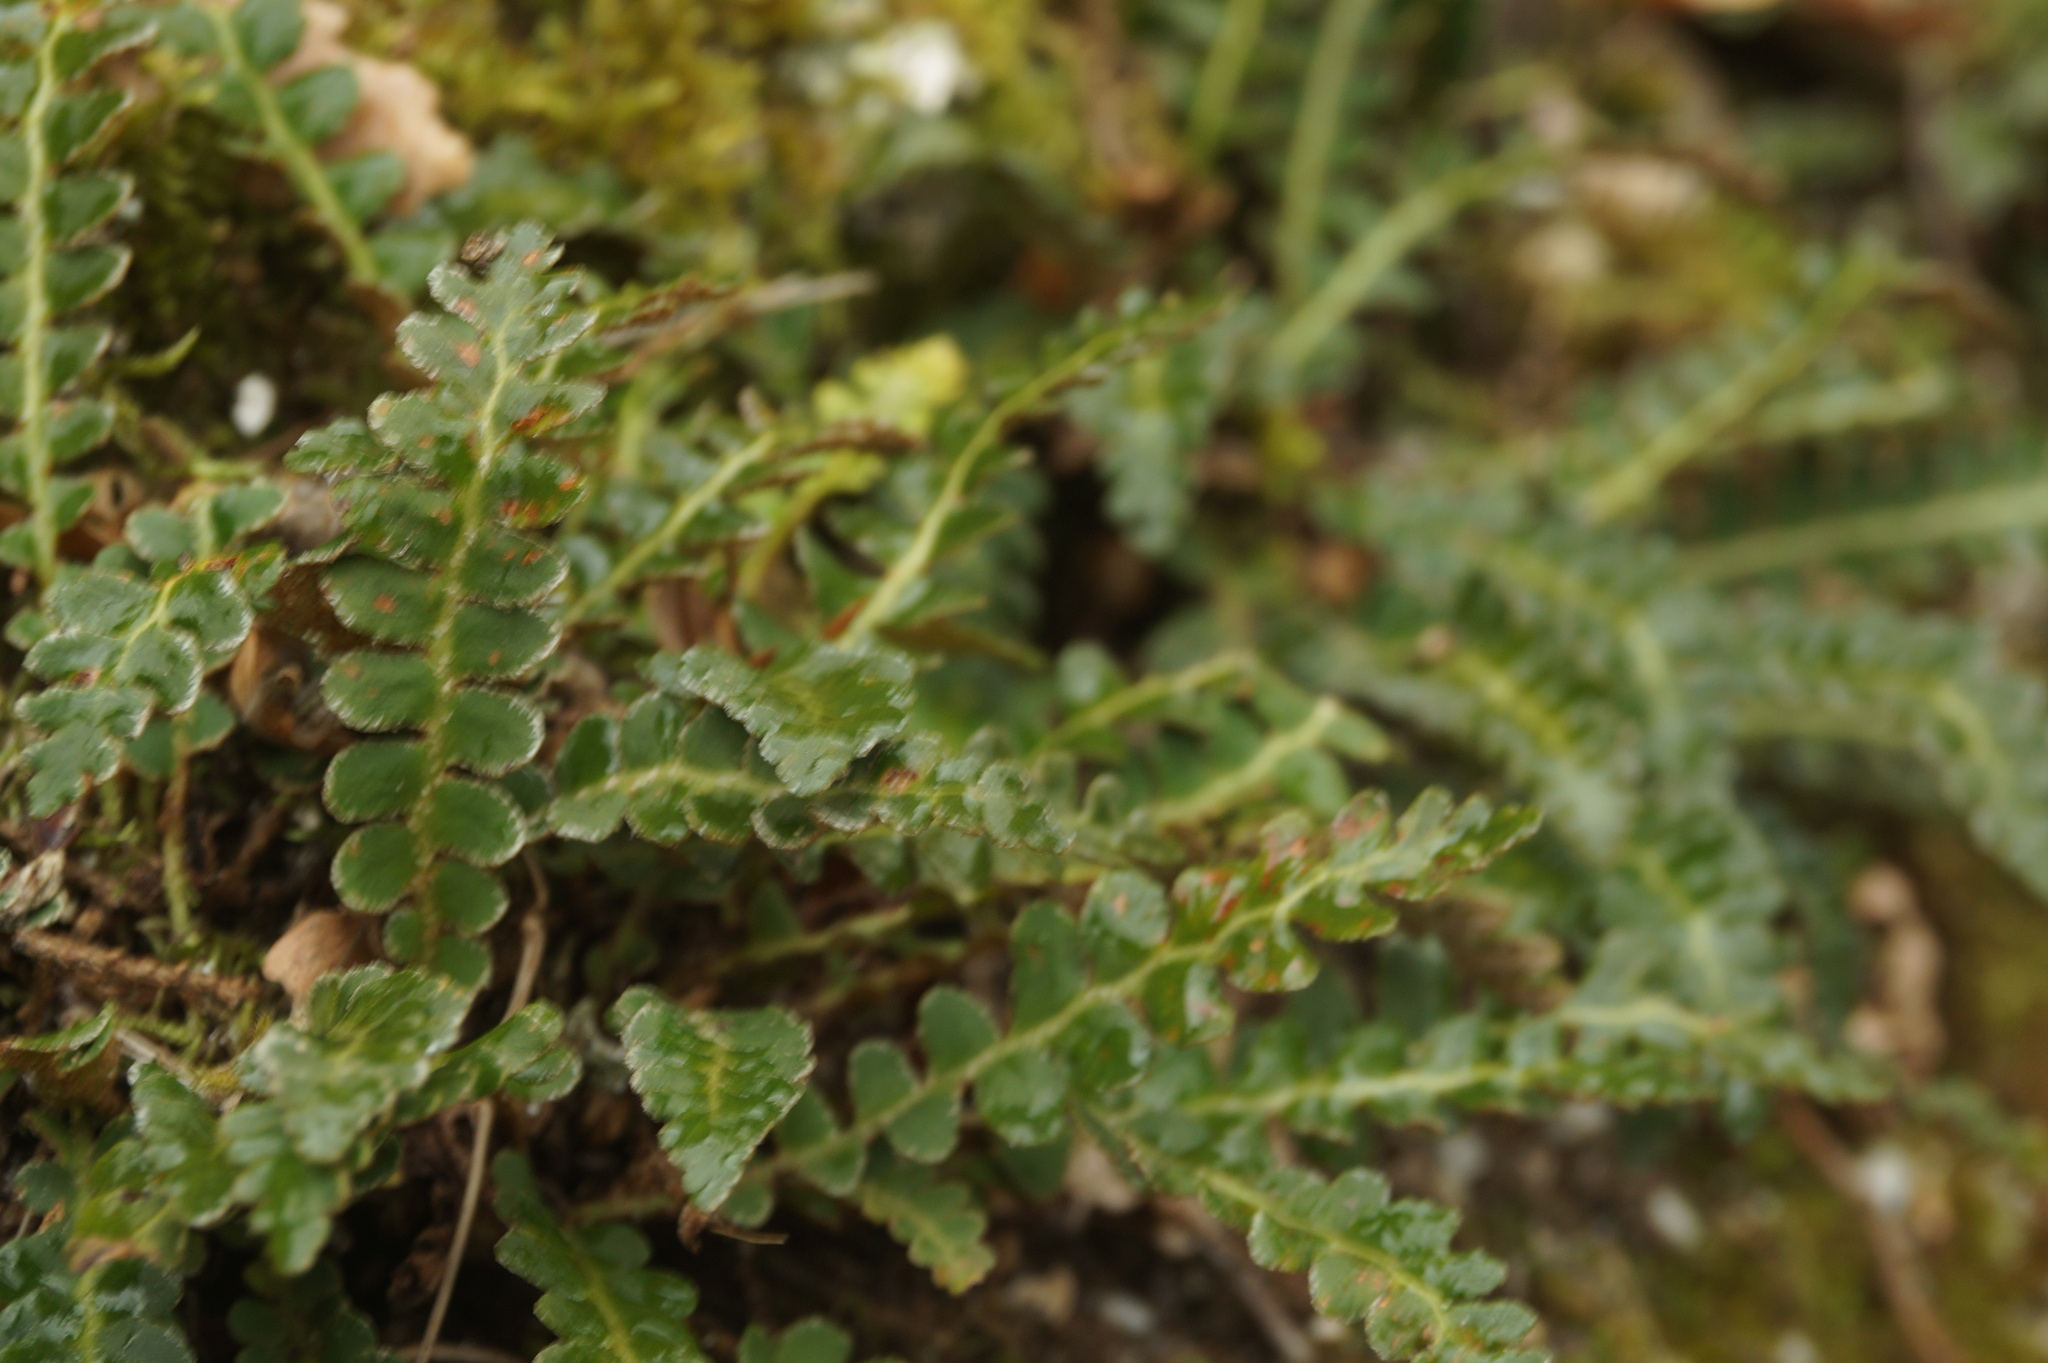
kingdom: Plantae
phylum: Tracheophyta
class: Polypodiopsida
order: Polypodiales
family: Aspleniaceae
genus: Asplenium
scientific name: Asplenium ceterach
